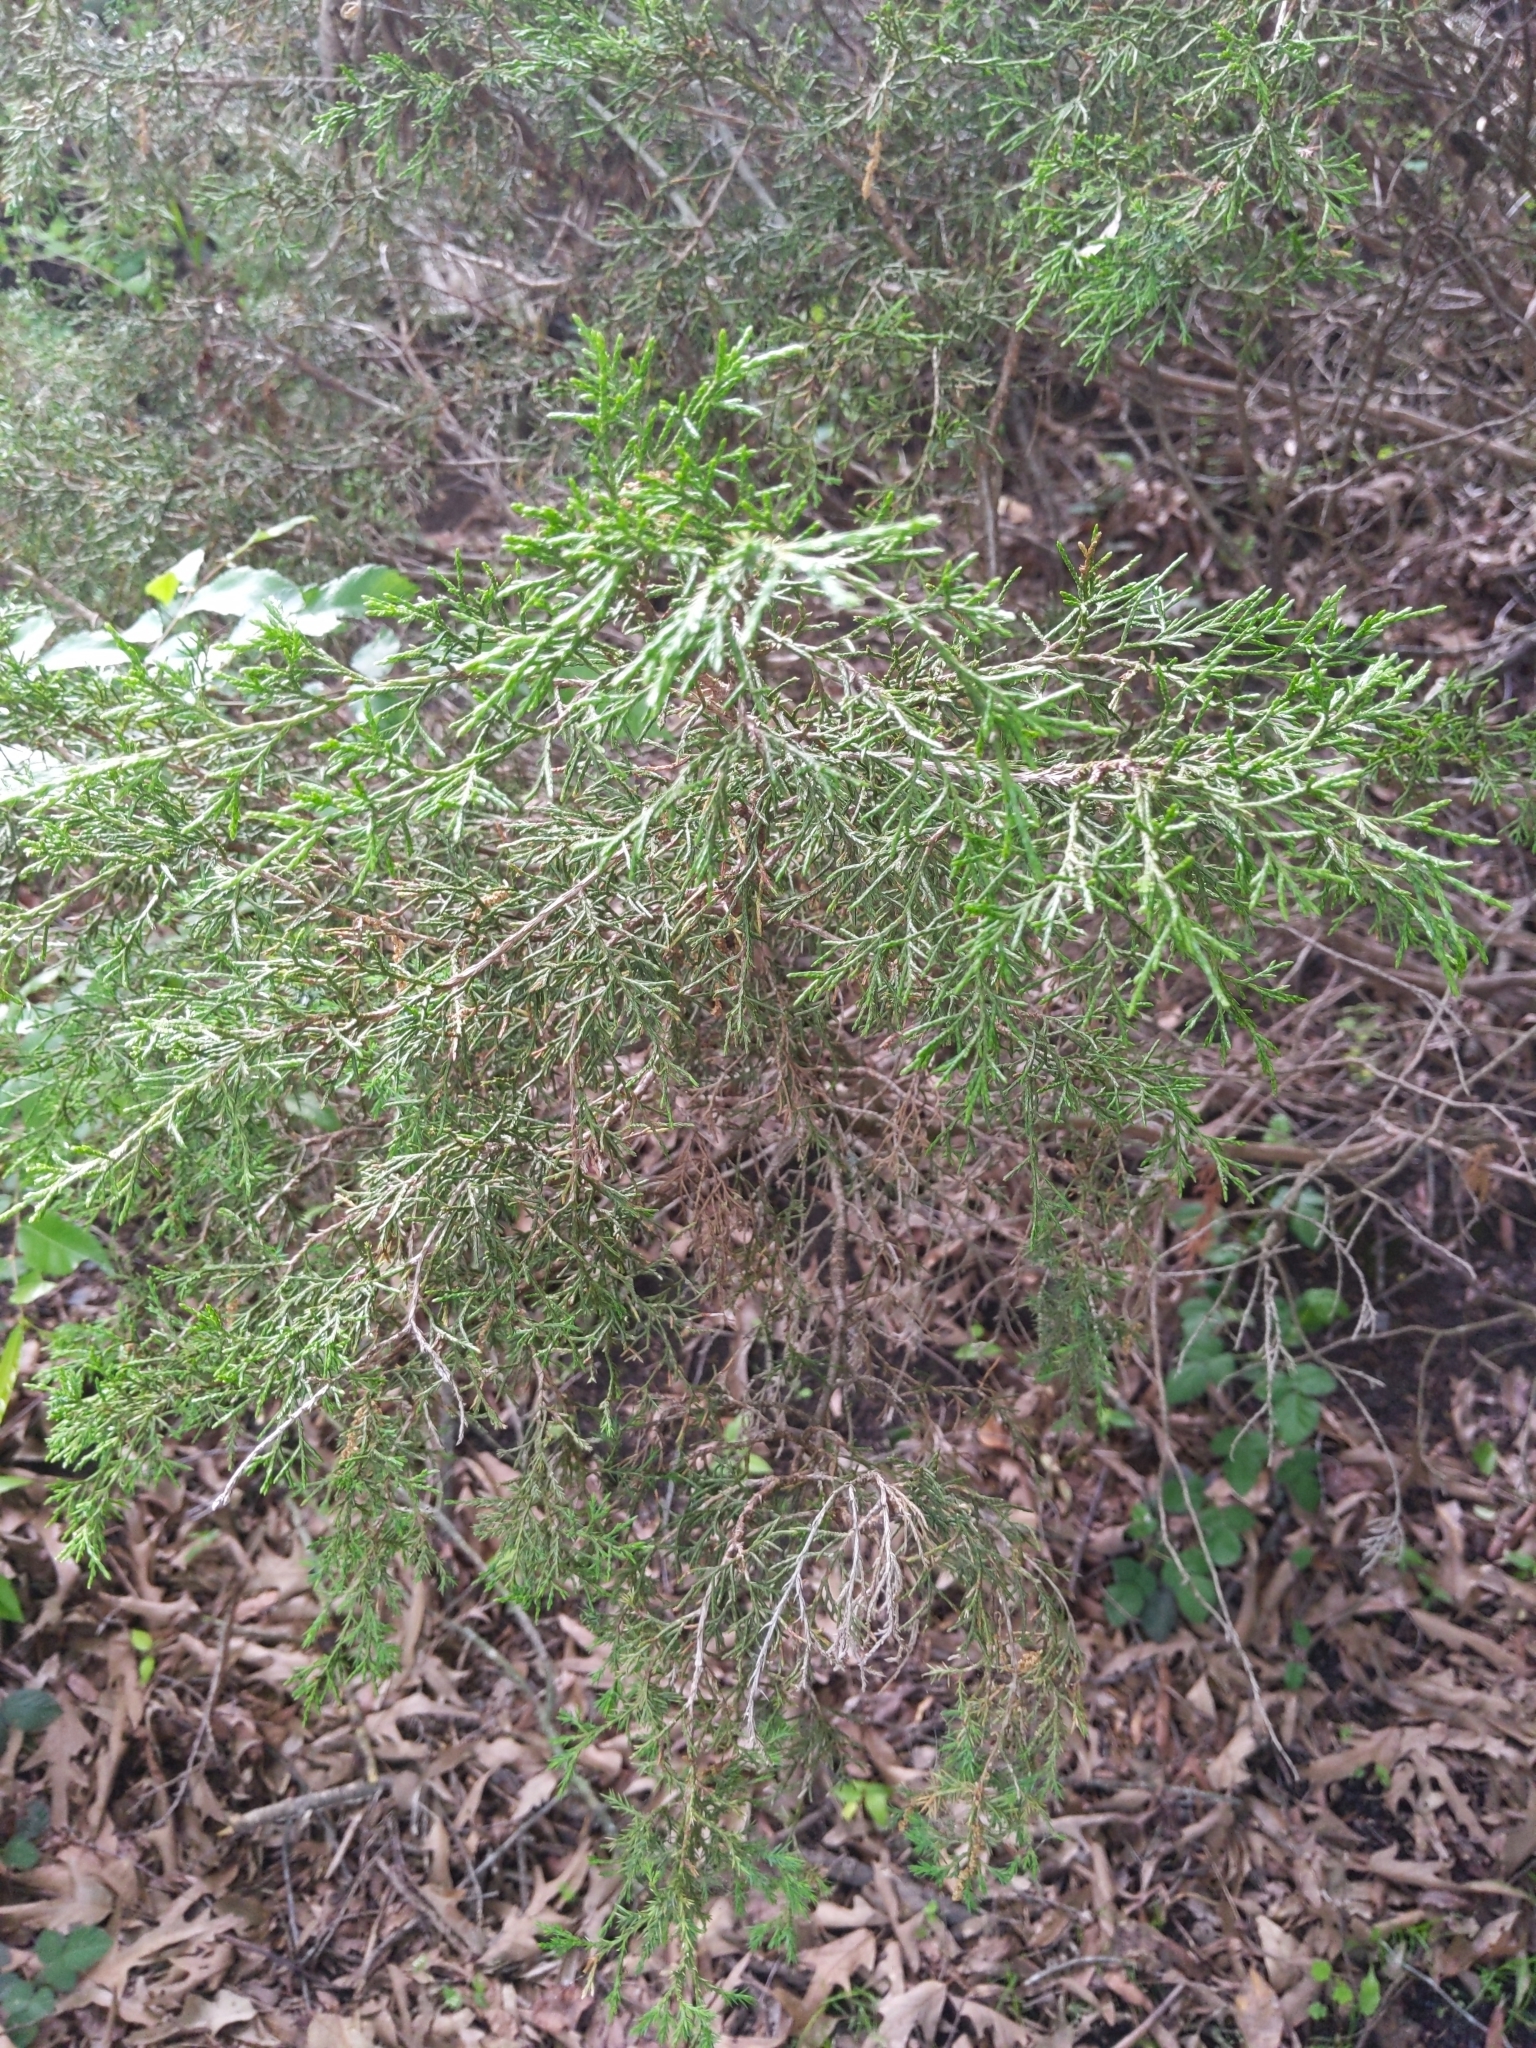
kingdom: Plantae
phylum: Tracheophyta
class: Pinopsida
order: Pinales
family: Cupressaceae
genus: Juniperus
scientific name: Juniperus virginiana
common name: Red juniper
